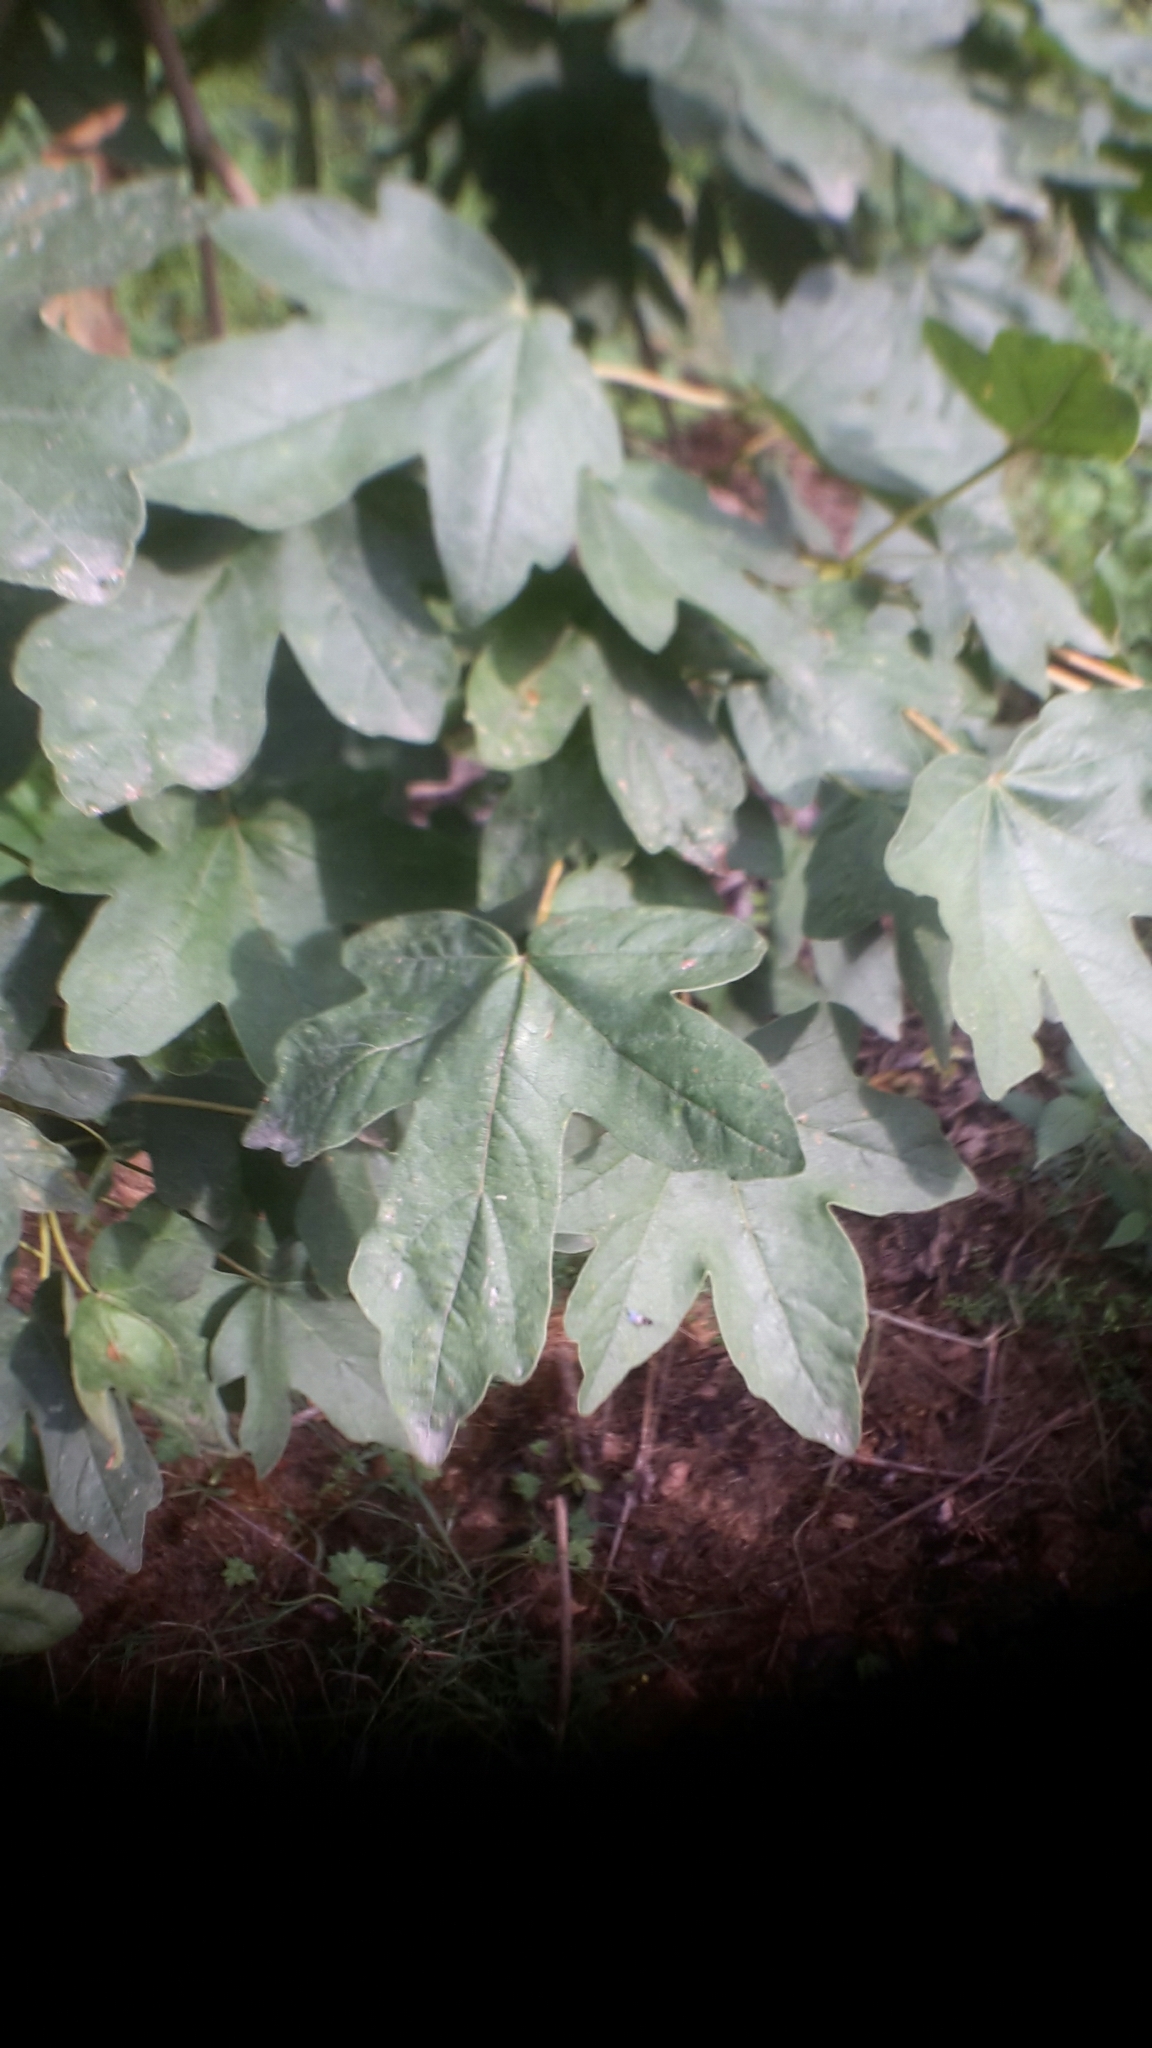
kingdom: Plantae
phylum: Tracheophyta
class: Magnoliopsida
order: Sapindales
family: Sapindaceae
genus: Acer
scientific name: Acer campestre
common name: Field maple
